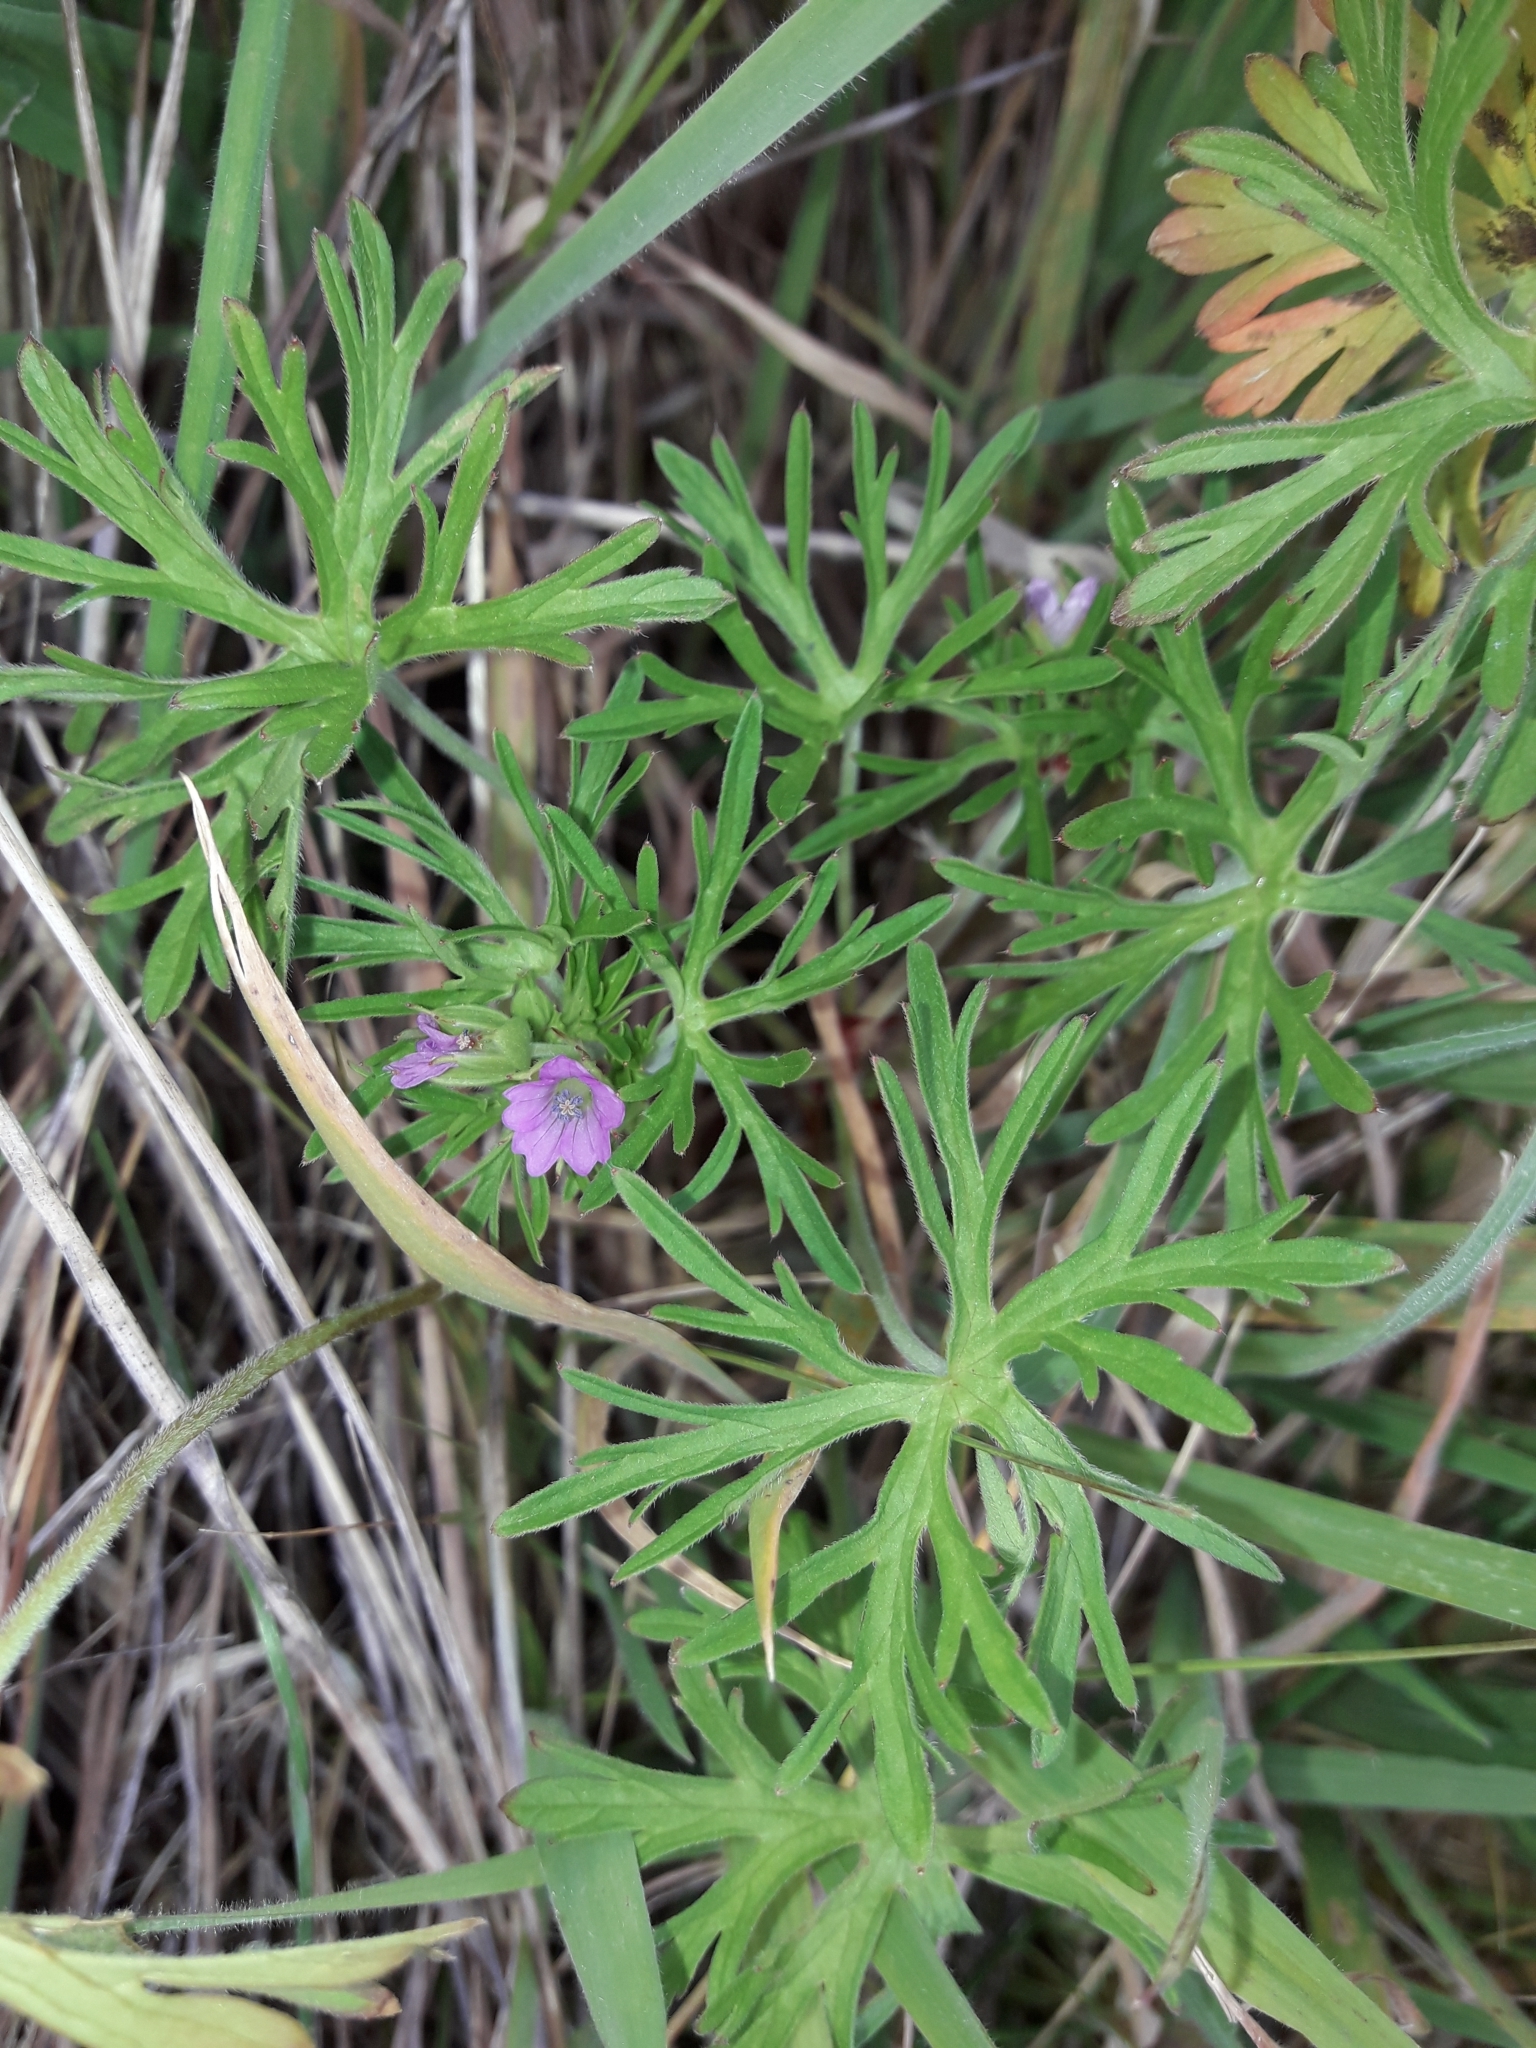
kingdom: Plantae
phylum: Tracheophyta
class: Magnoliopsida
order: Geraniales
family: Geraniaceae
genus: Geranium
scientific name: Geranium dissectum
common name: Cut-leaved crane's-bill
